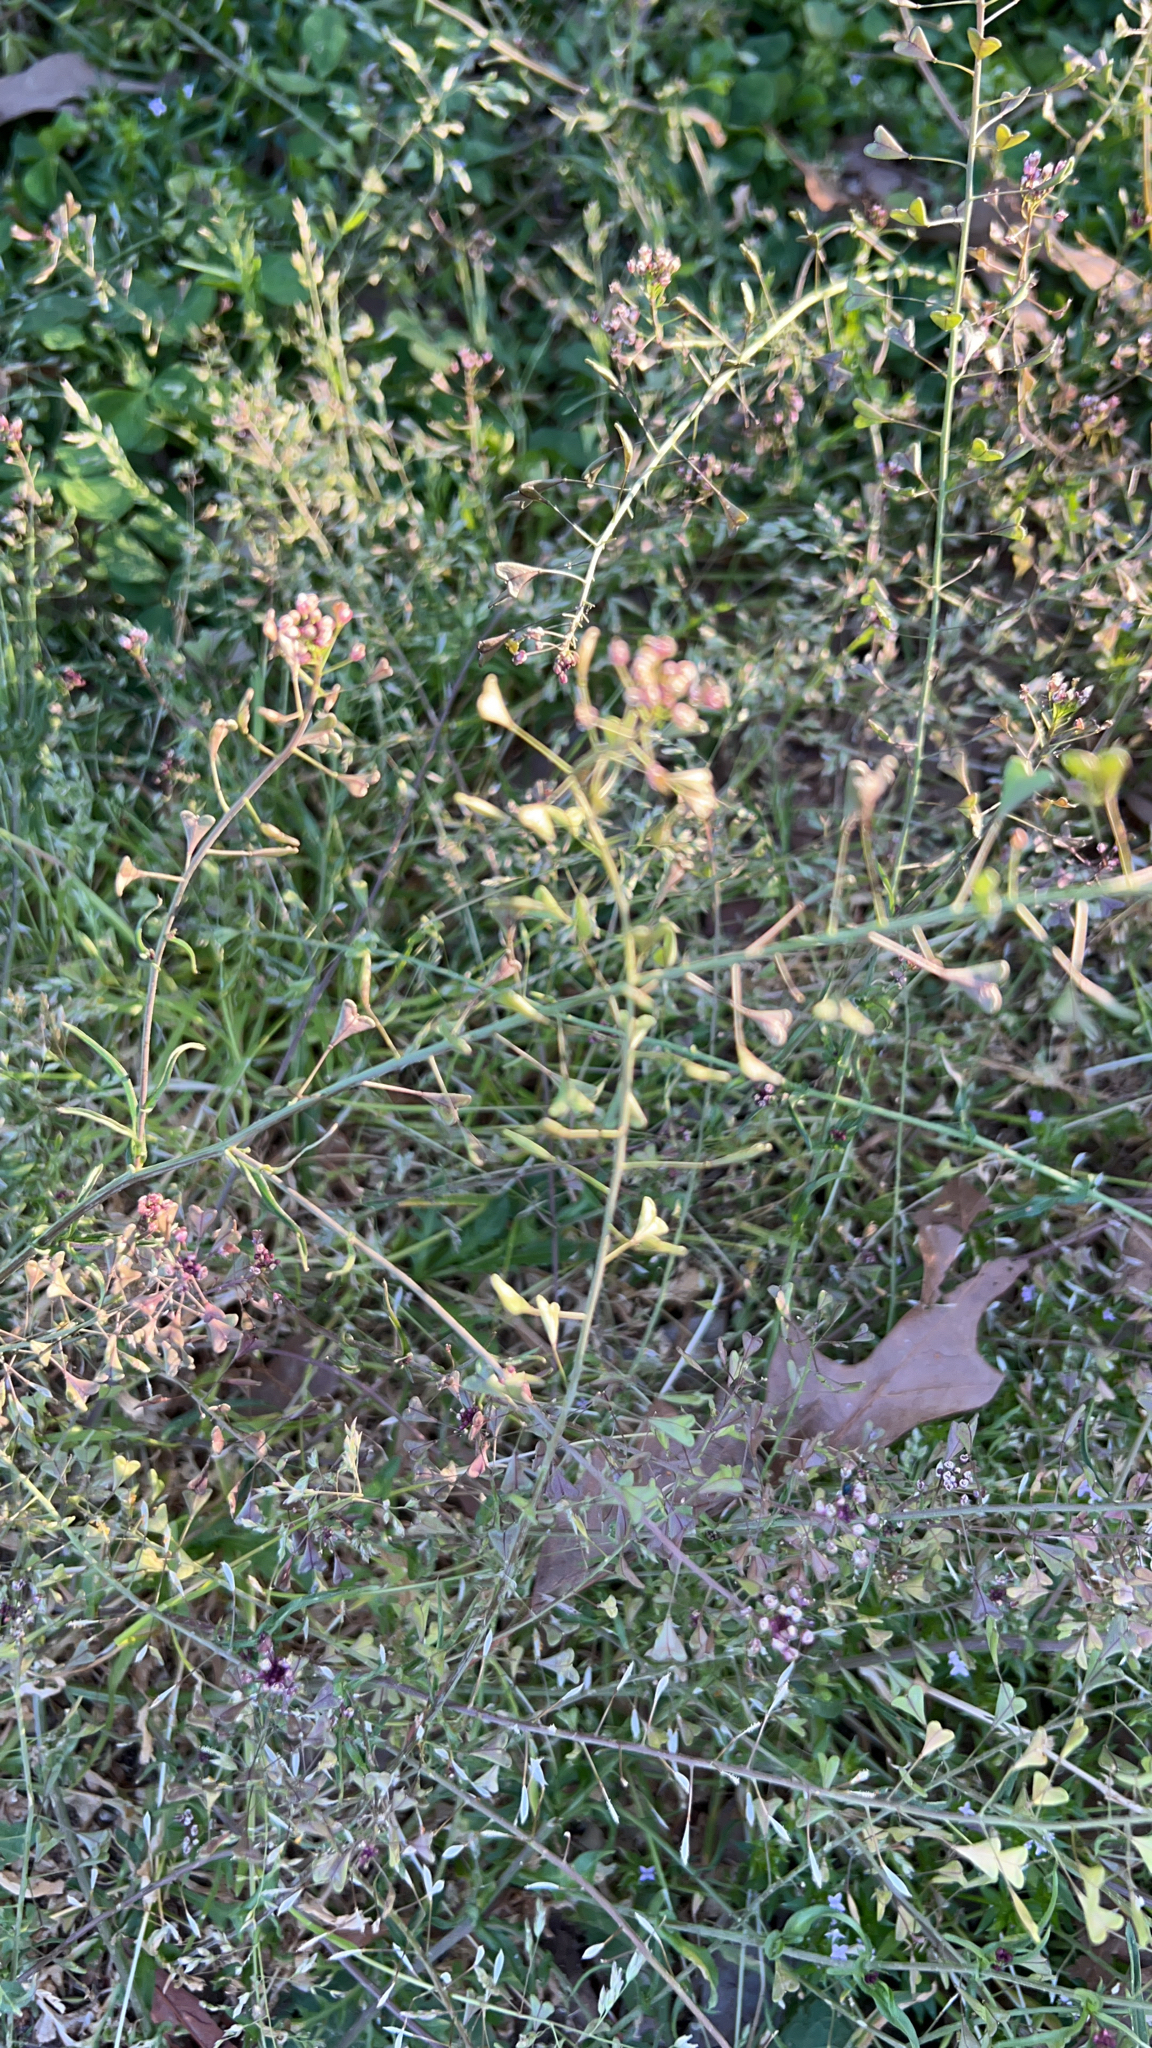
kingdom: Plantae
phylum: Tracheophyta
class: Magnoliopsida
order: Brassicales
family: Brassicaceae
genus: Capsella
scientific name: Capsella bursa-pastoris
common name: Shepherd's purse
